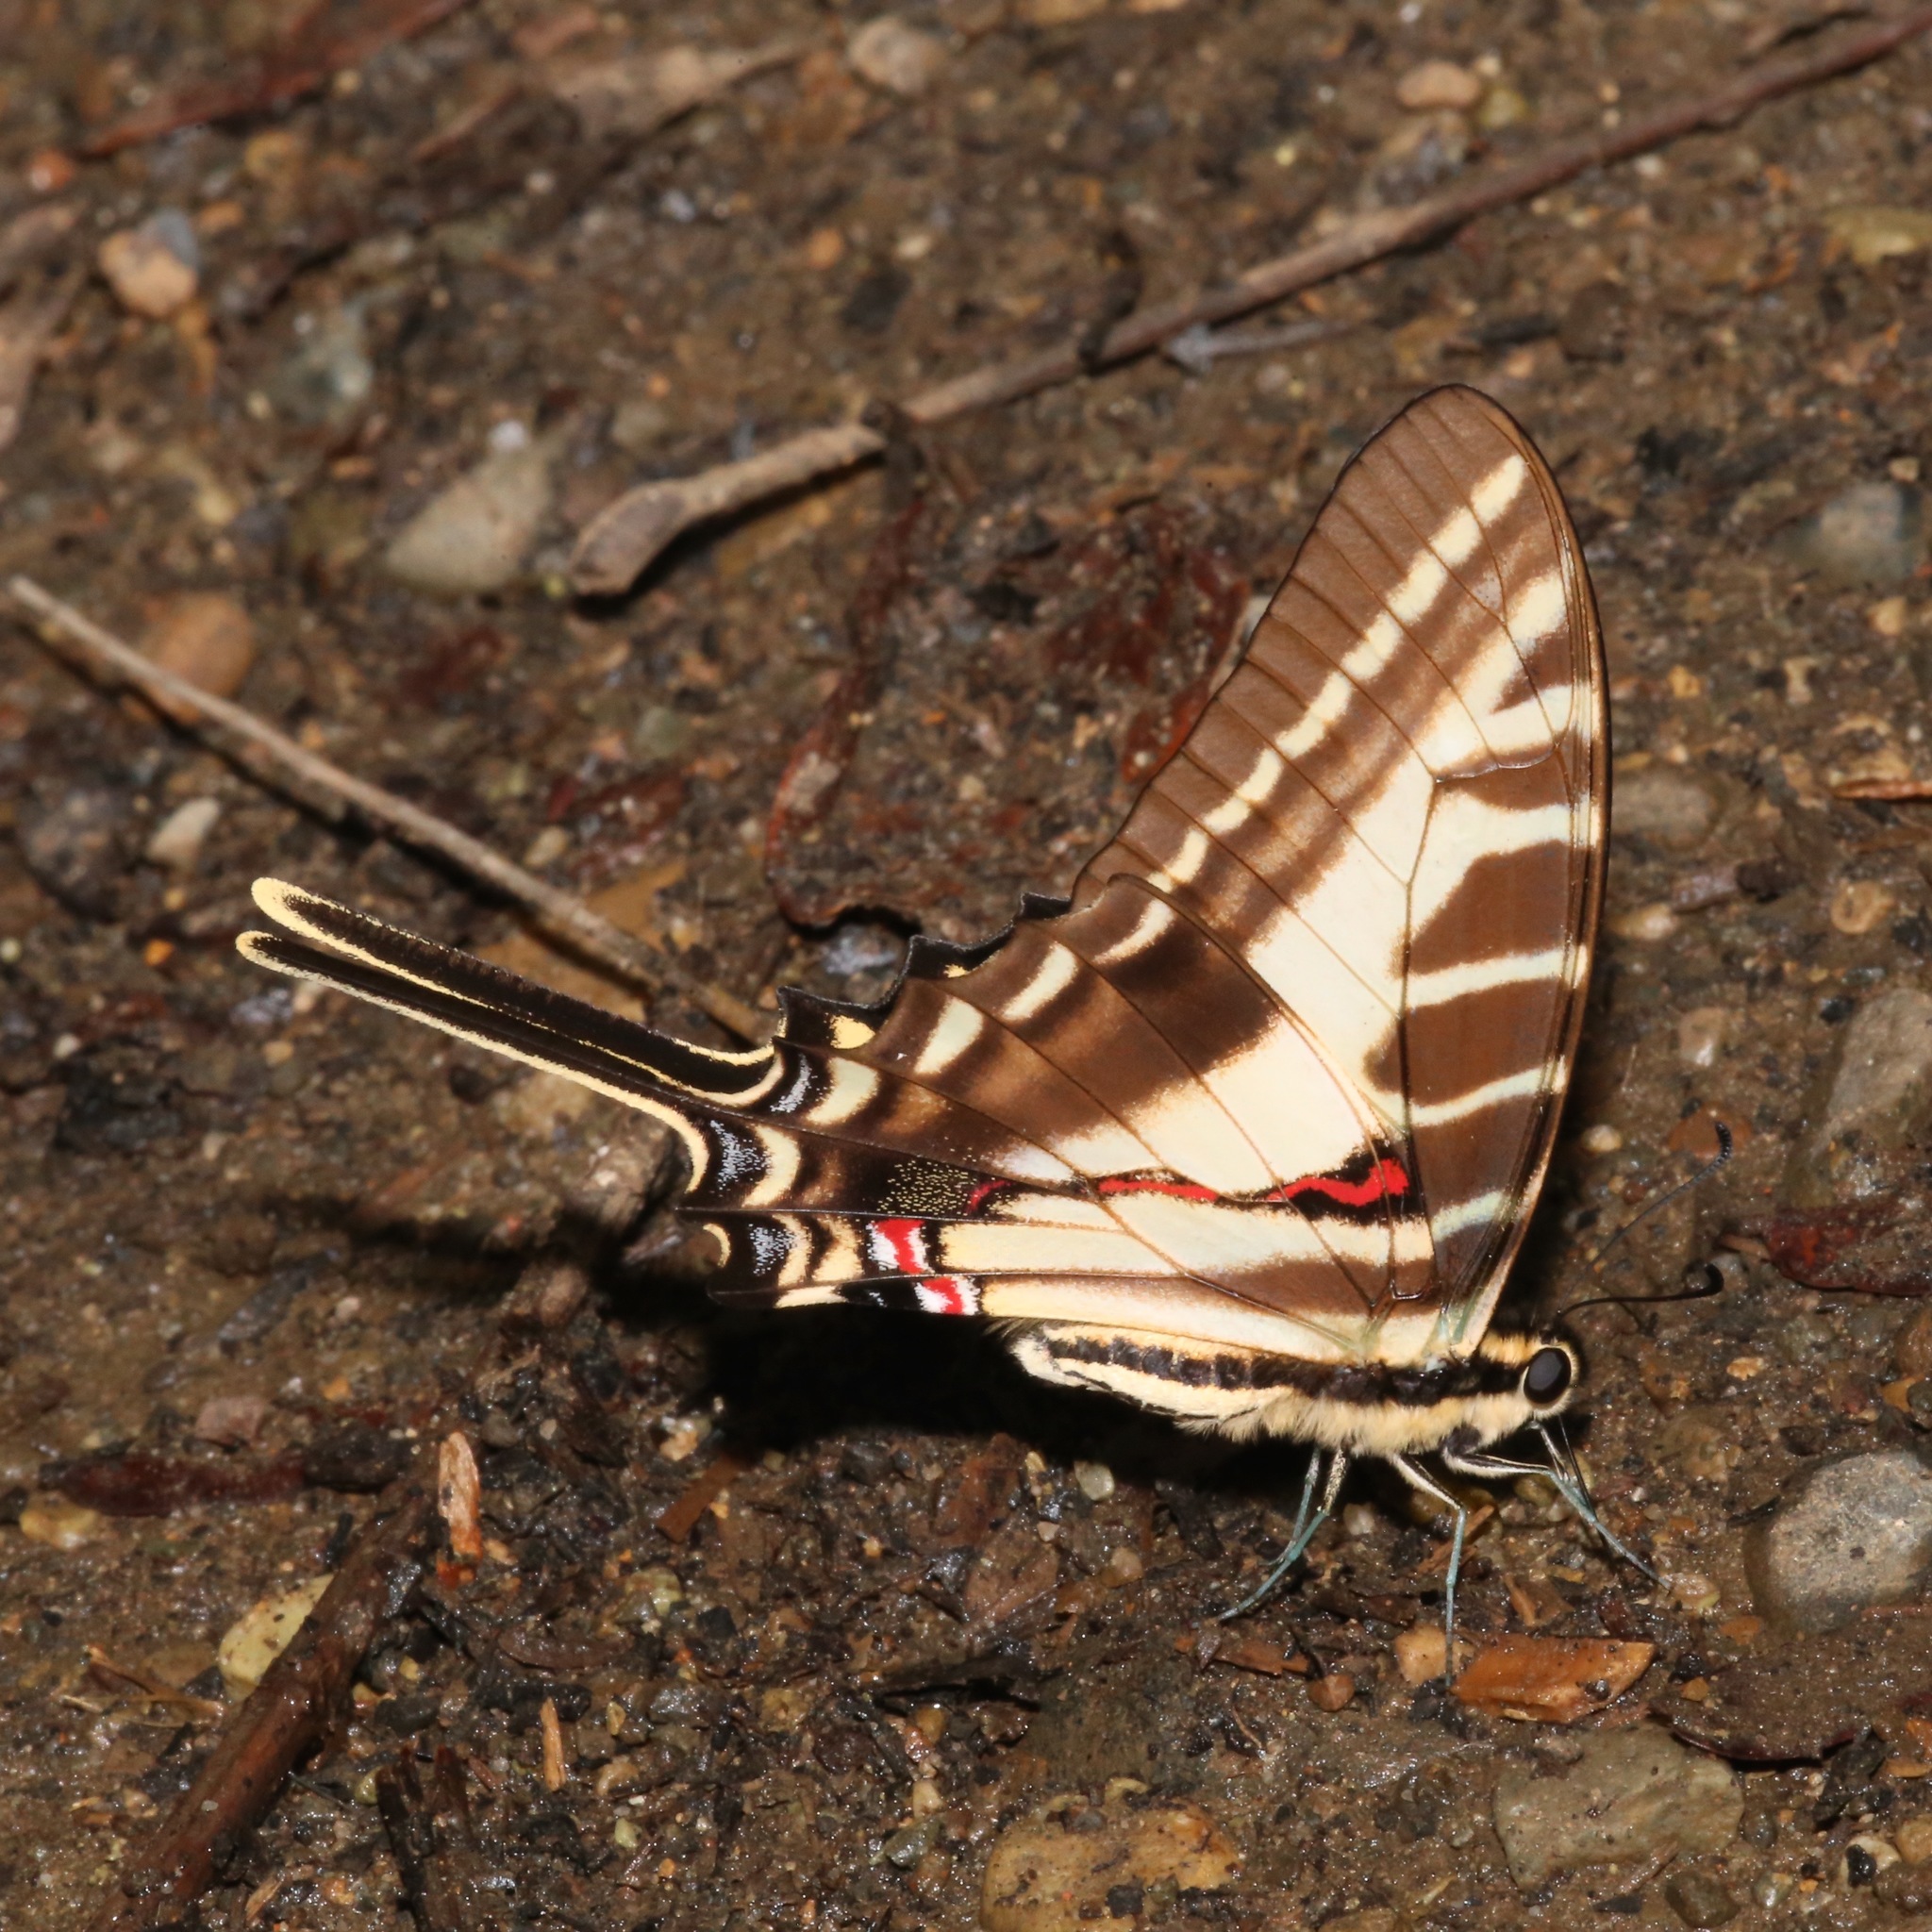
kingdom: Animalia
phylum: Arthropoda
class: Insecta
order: Lepidoptera
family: Papilionidae
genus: Protographium
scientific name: Protographium philolaus
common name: Dark zebra swallowtail
